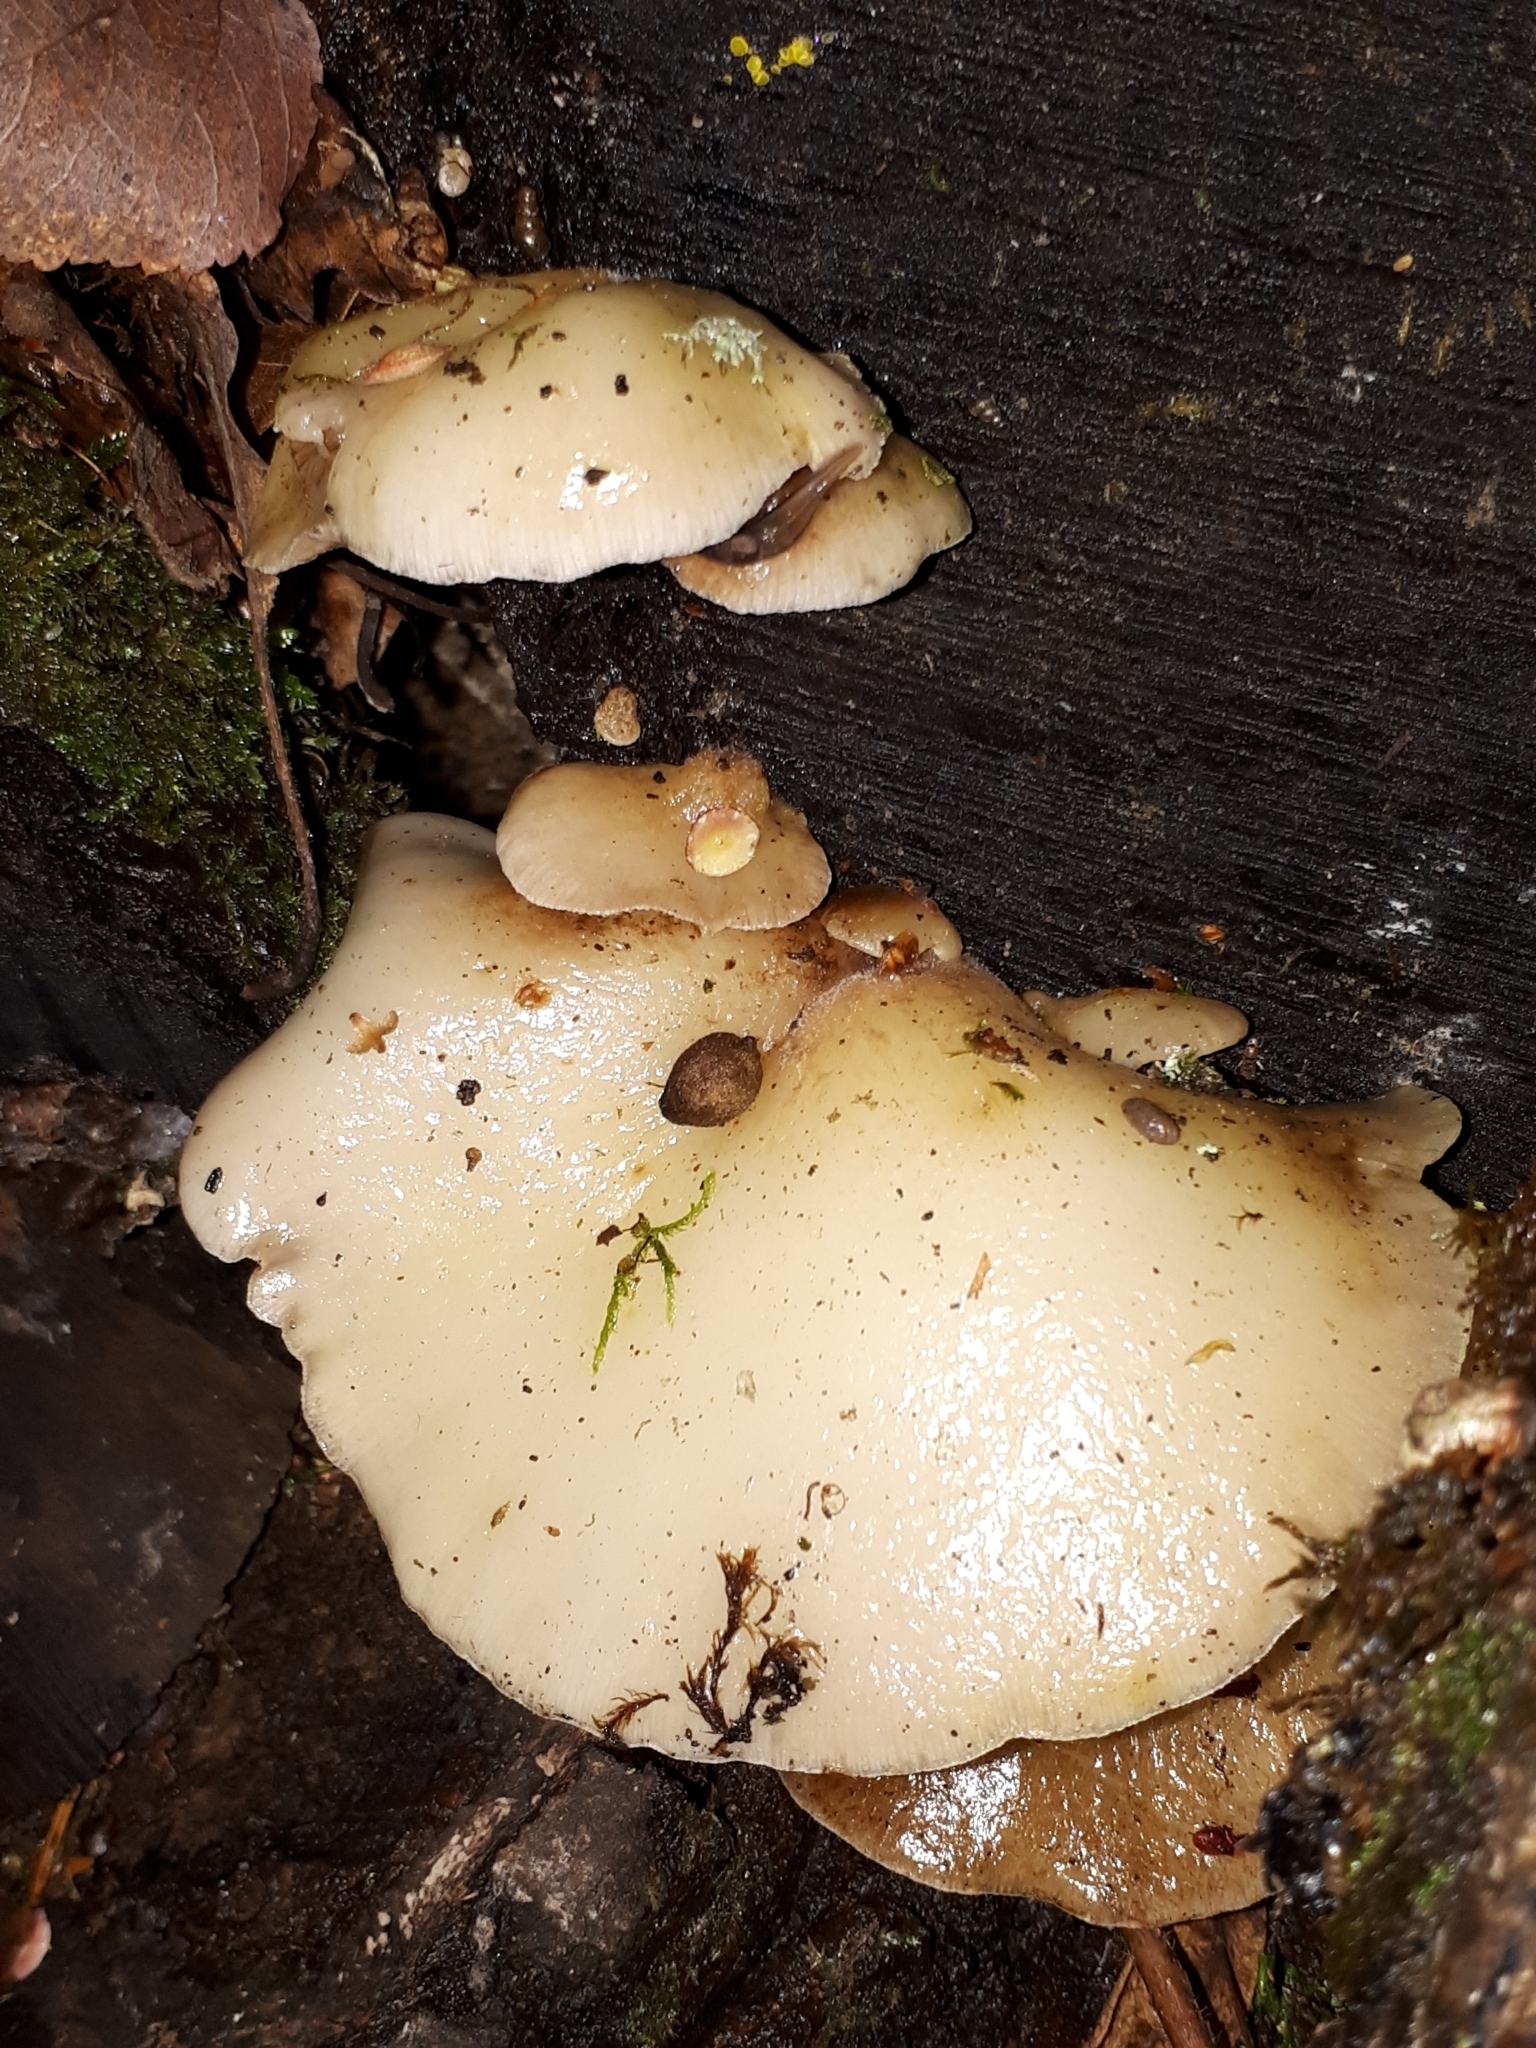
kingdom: Fungi
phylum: Basidiomycota
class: Agaricomycetes
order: Agaricales
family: Crepidotaceae
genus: Crepidotus
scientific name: Crepidotus mollis
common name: Peeling oysterling
